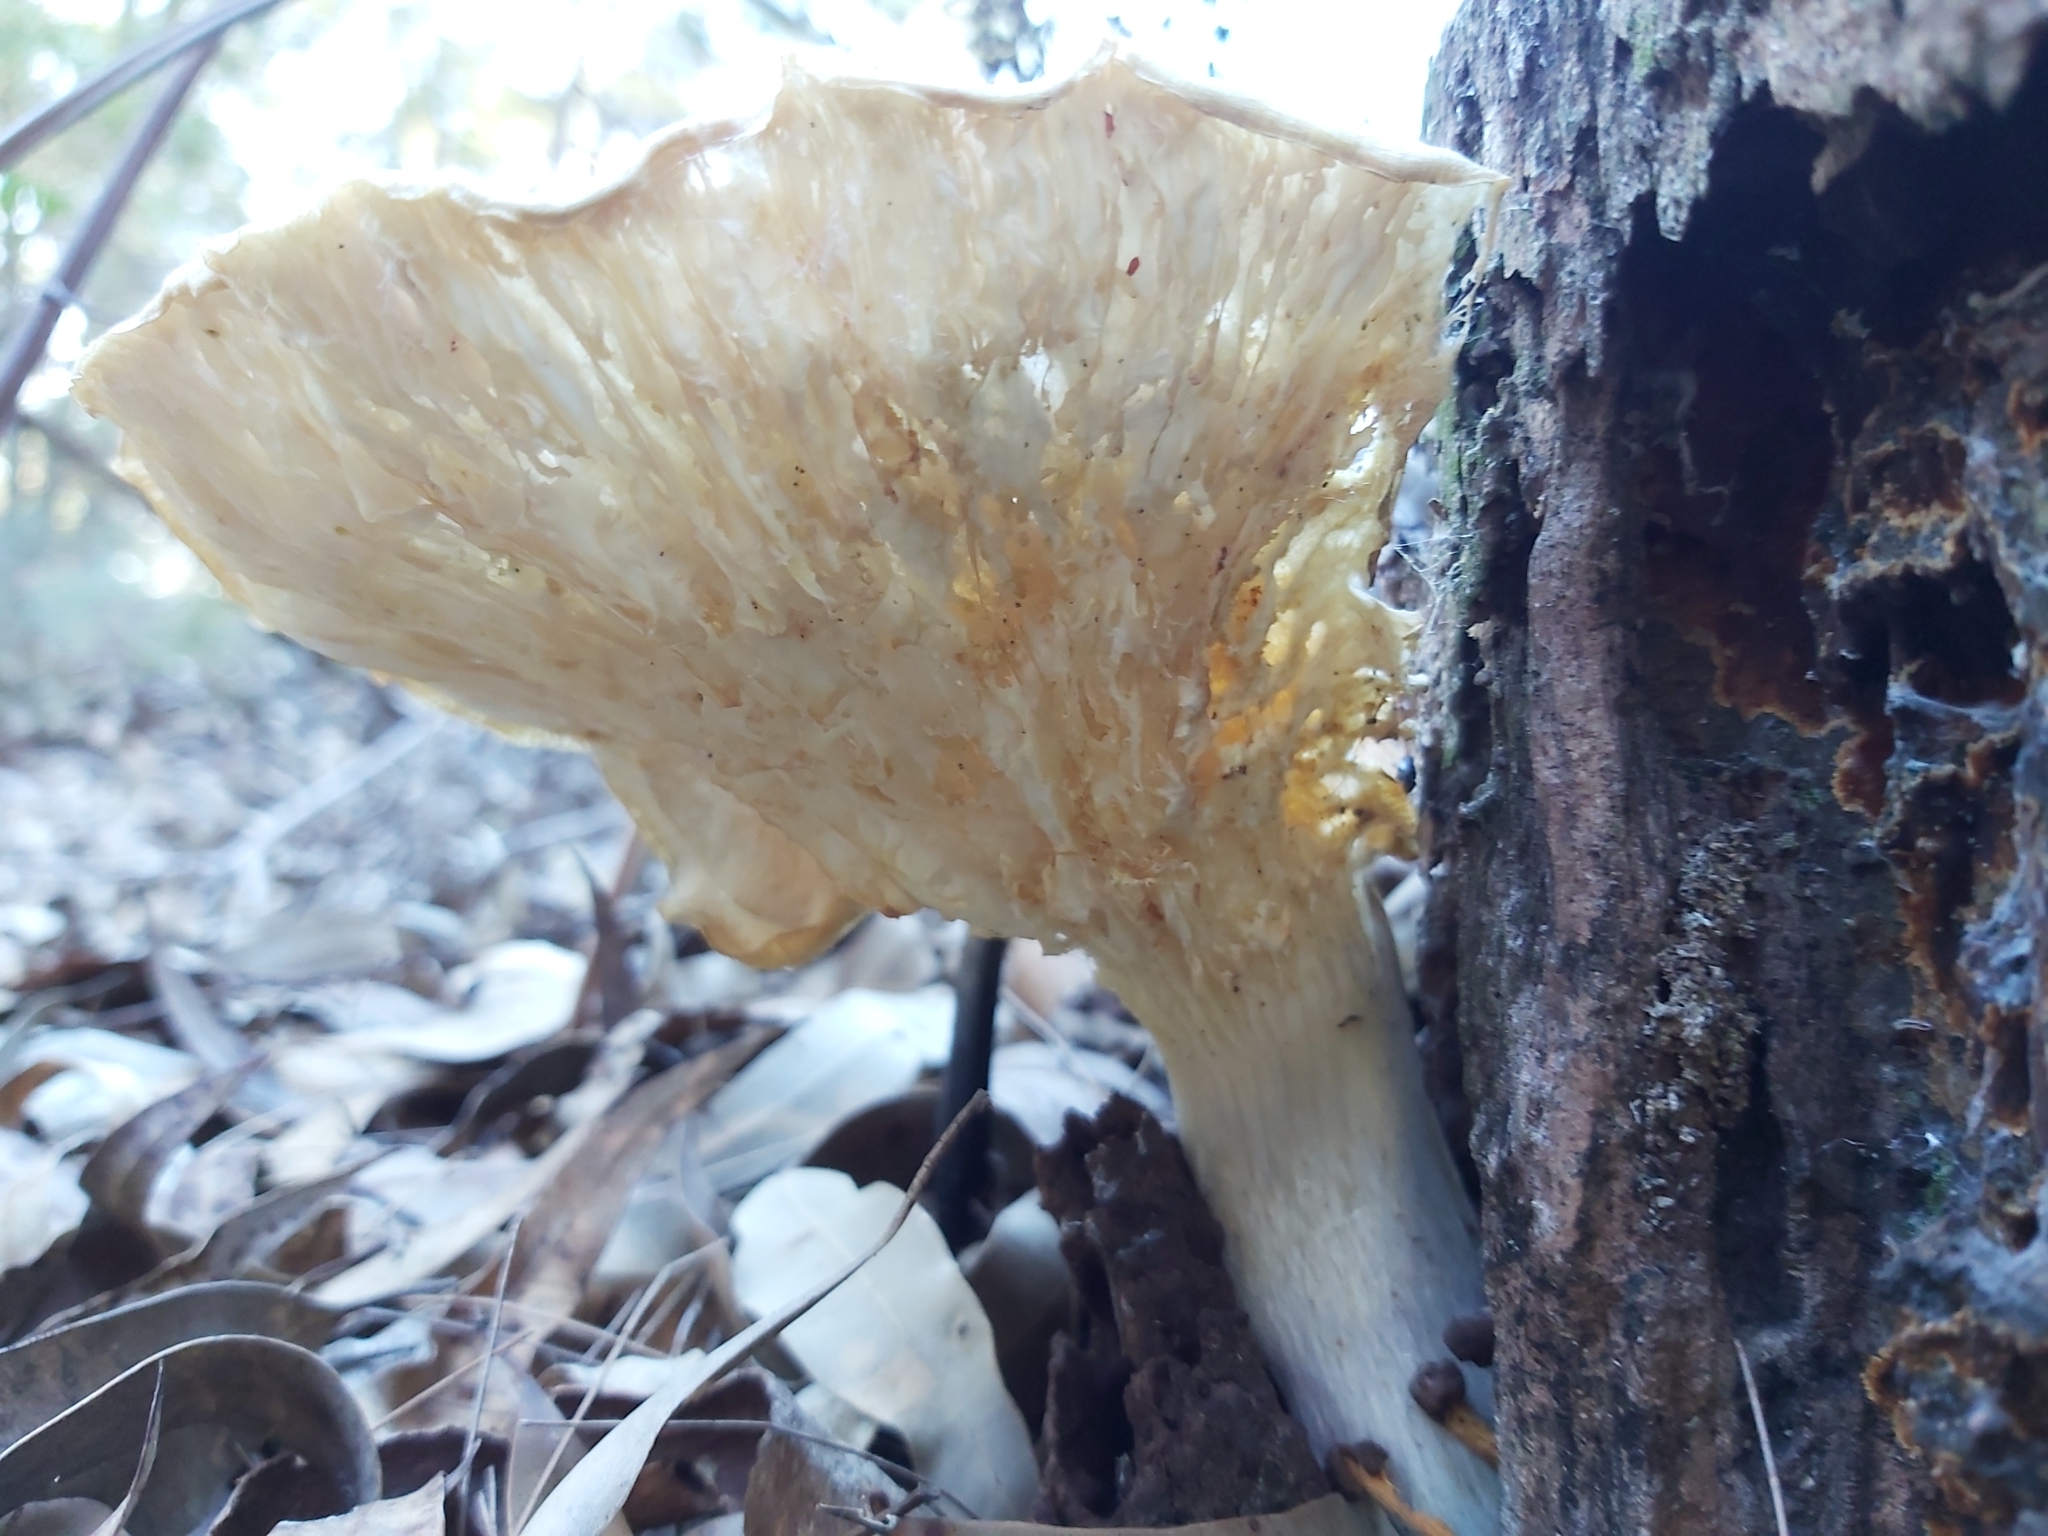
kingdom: Fungi
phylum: Basidiomycota
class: Agaricomycetes
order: Agaricales
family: Omphalotaceae
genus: Omphalotus
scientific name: Omphalotus nidiformis
